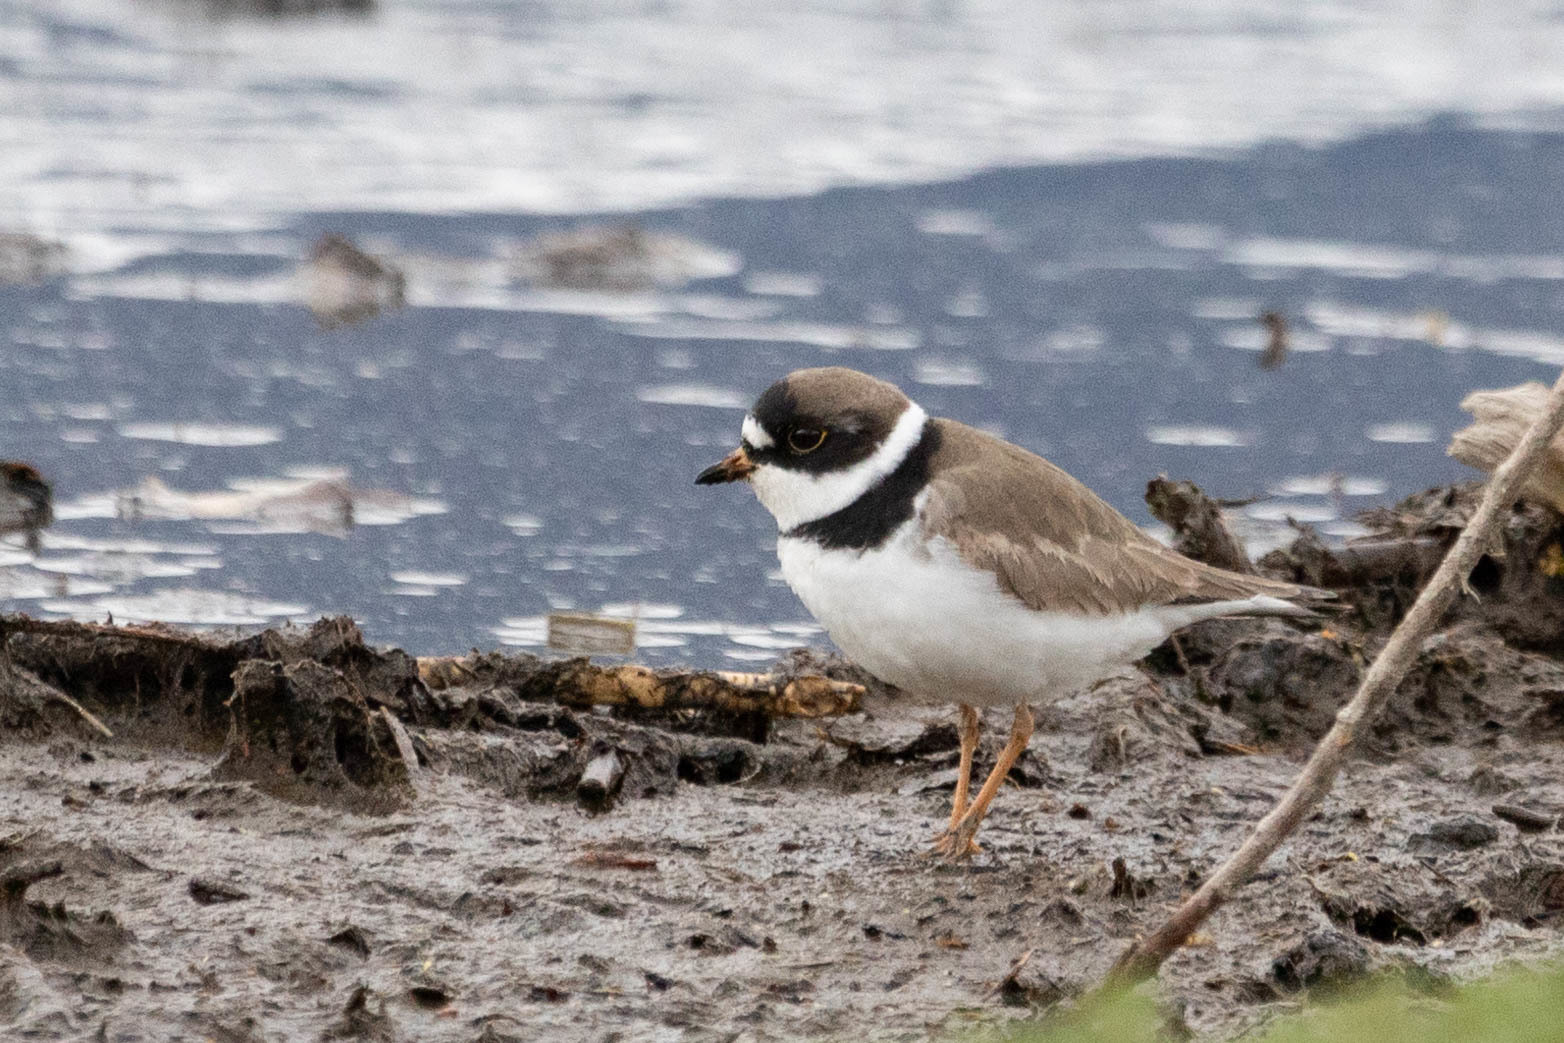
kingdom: Animalia
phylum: Chordata
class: Aves
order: Charadriiformes
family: Charadriidae
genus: Charadrius
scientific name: Charadrius semipalmatus
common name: Semipalmated plover
